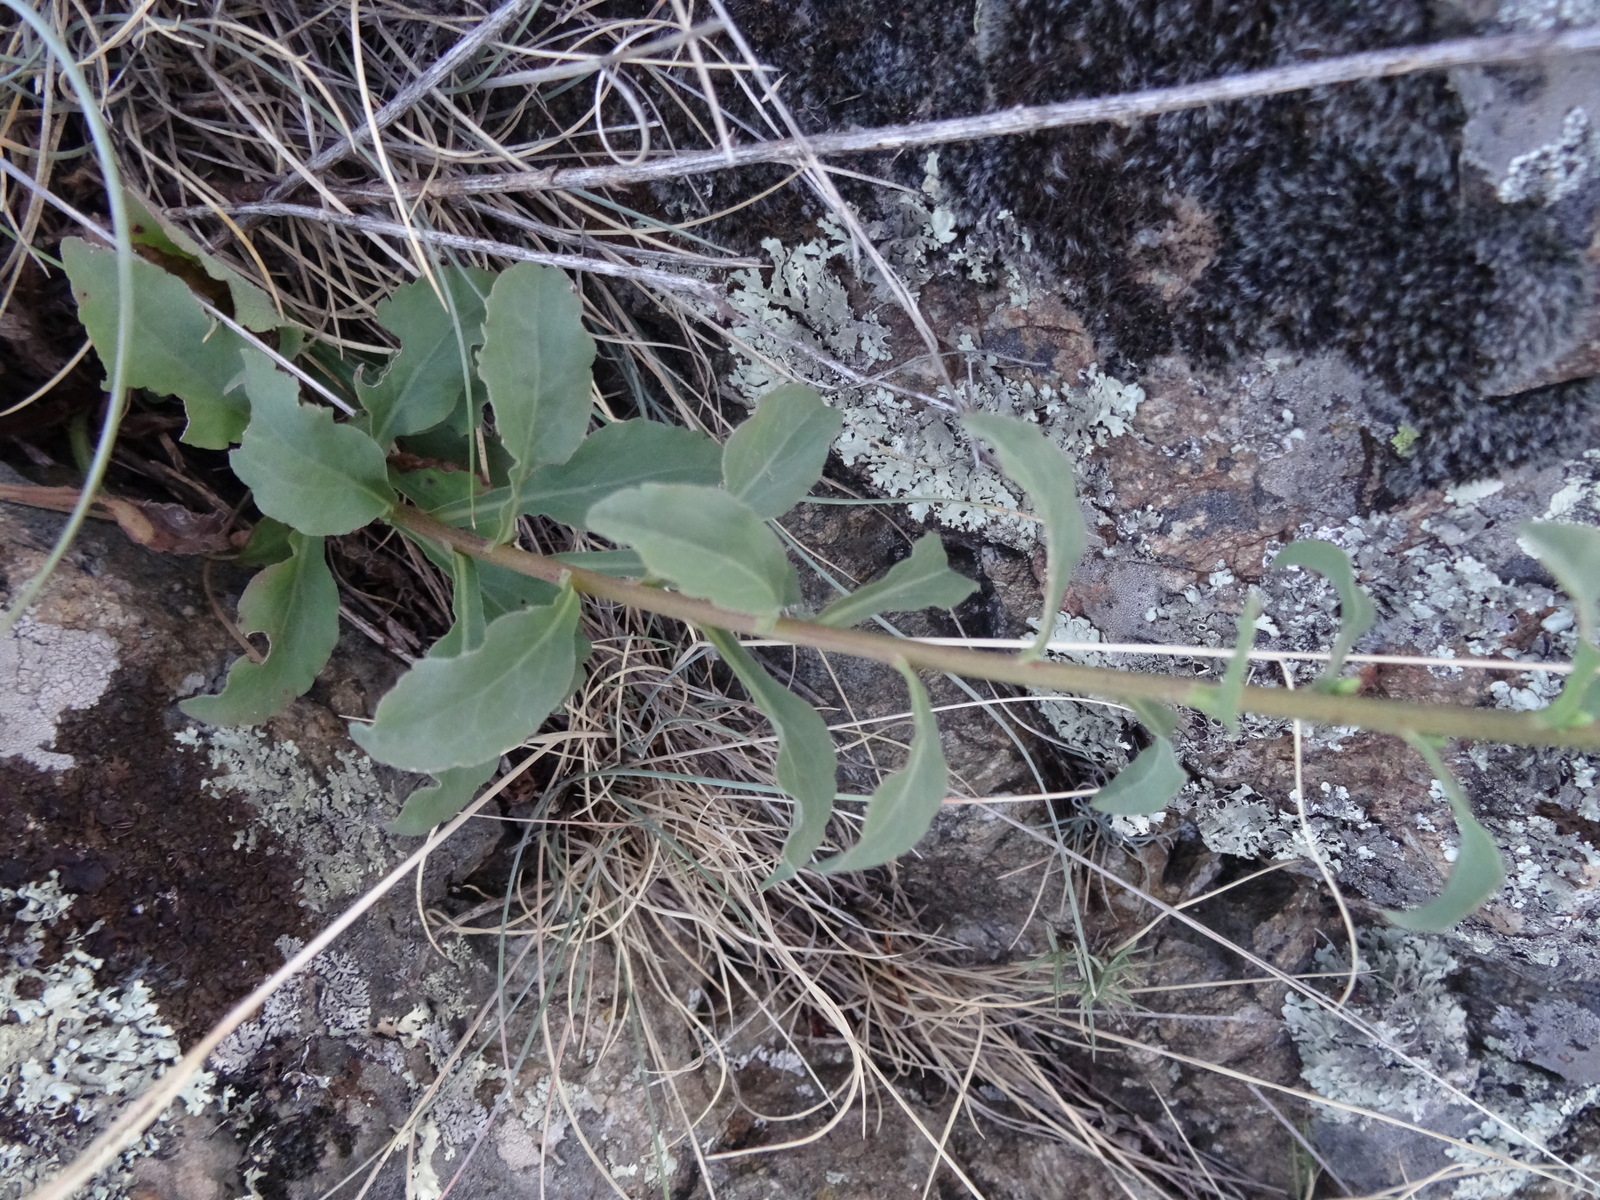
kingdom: Plantae
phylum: Tracheophyta
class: Magnoliopsida
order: Asterales
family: Asteraceae
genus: Solidago
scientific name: Solidago virgaurea
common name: Goldenrod
